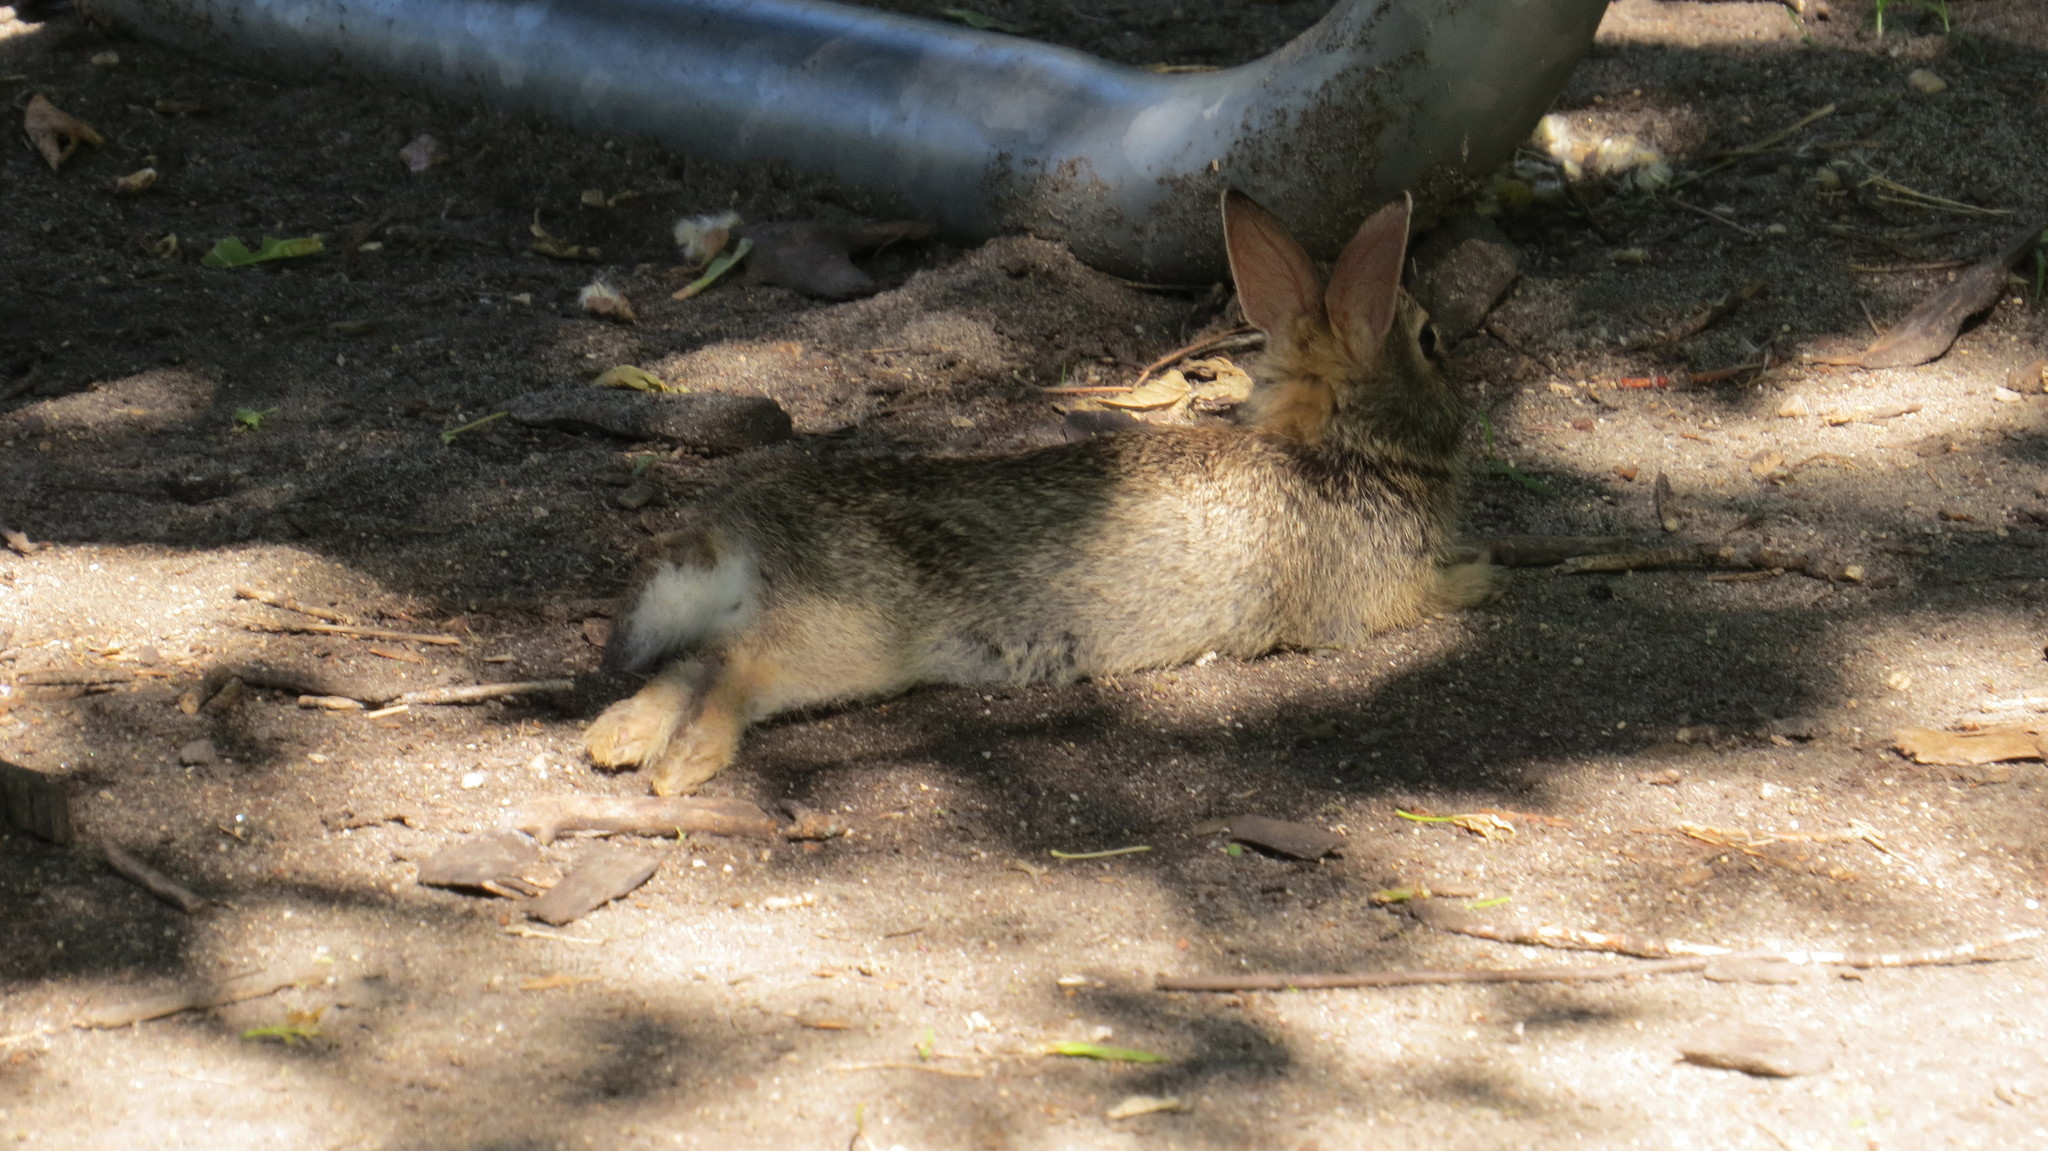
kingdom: Animalia
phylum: Chordata
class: Mammalia
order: Lagomorpha
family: Leporidae
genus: Sylvilagus
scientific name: Sylvilagus floridanus
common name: Eastern cottontail
